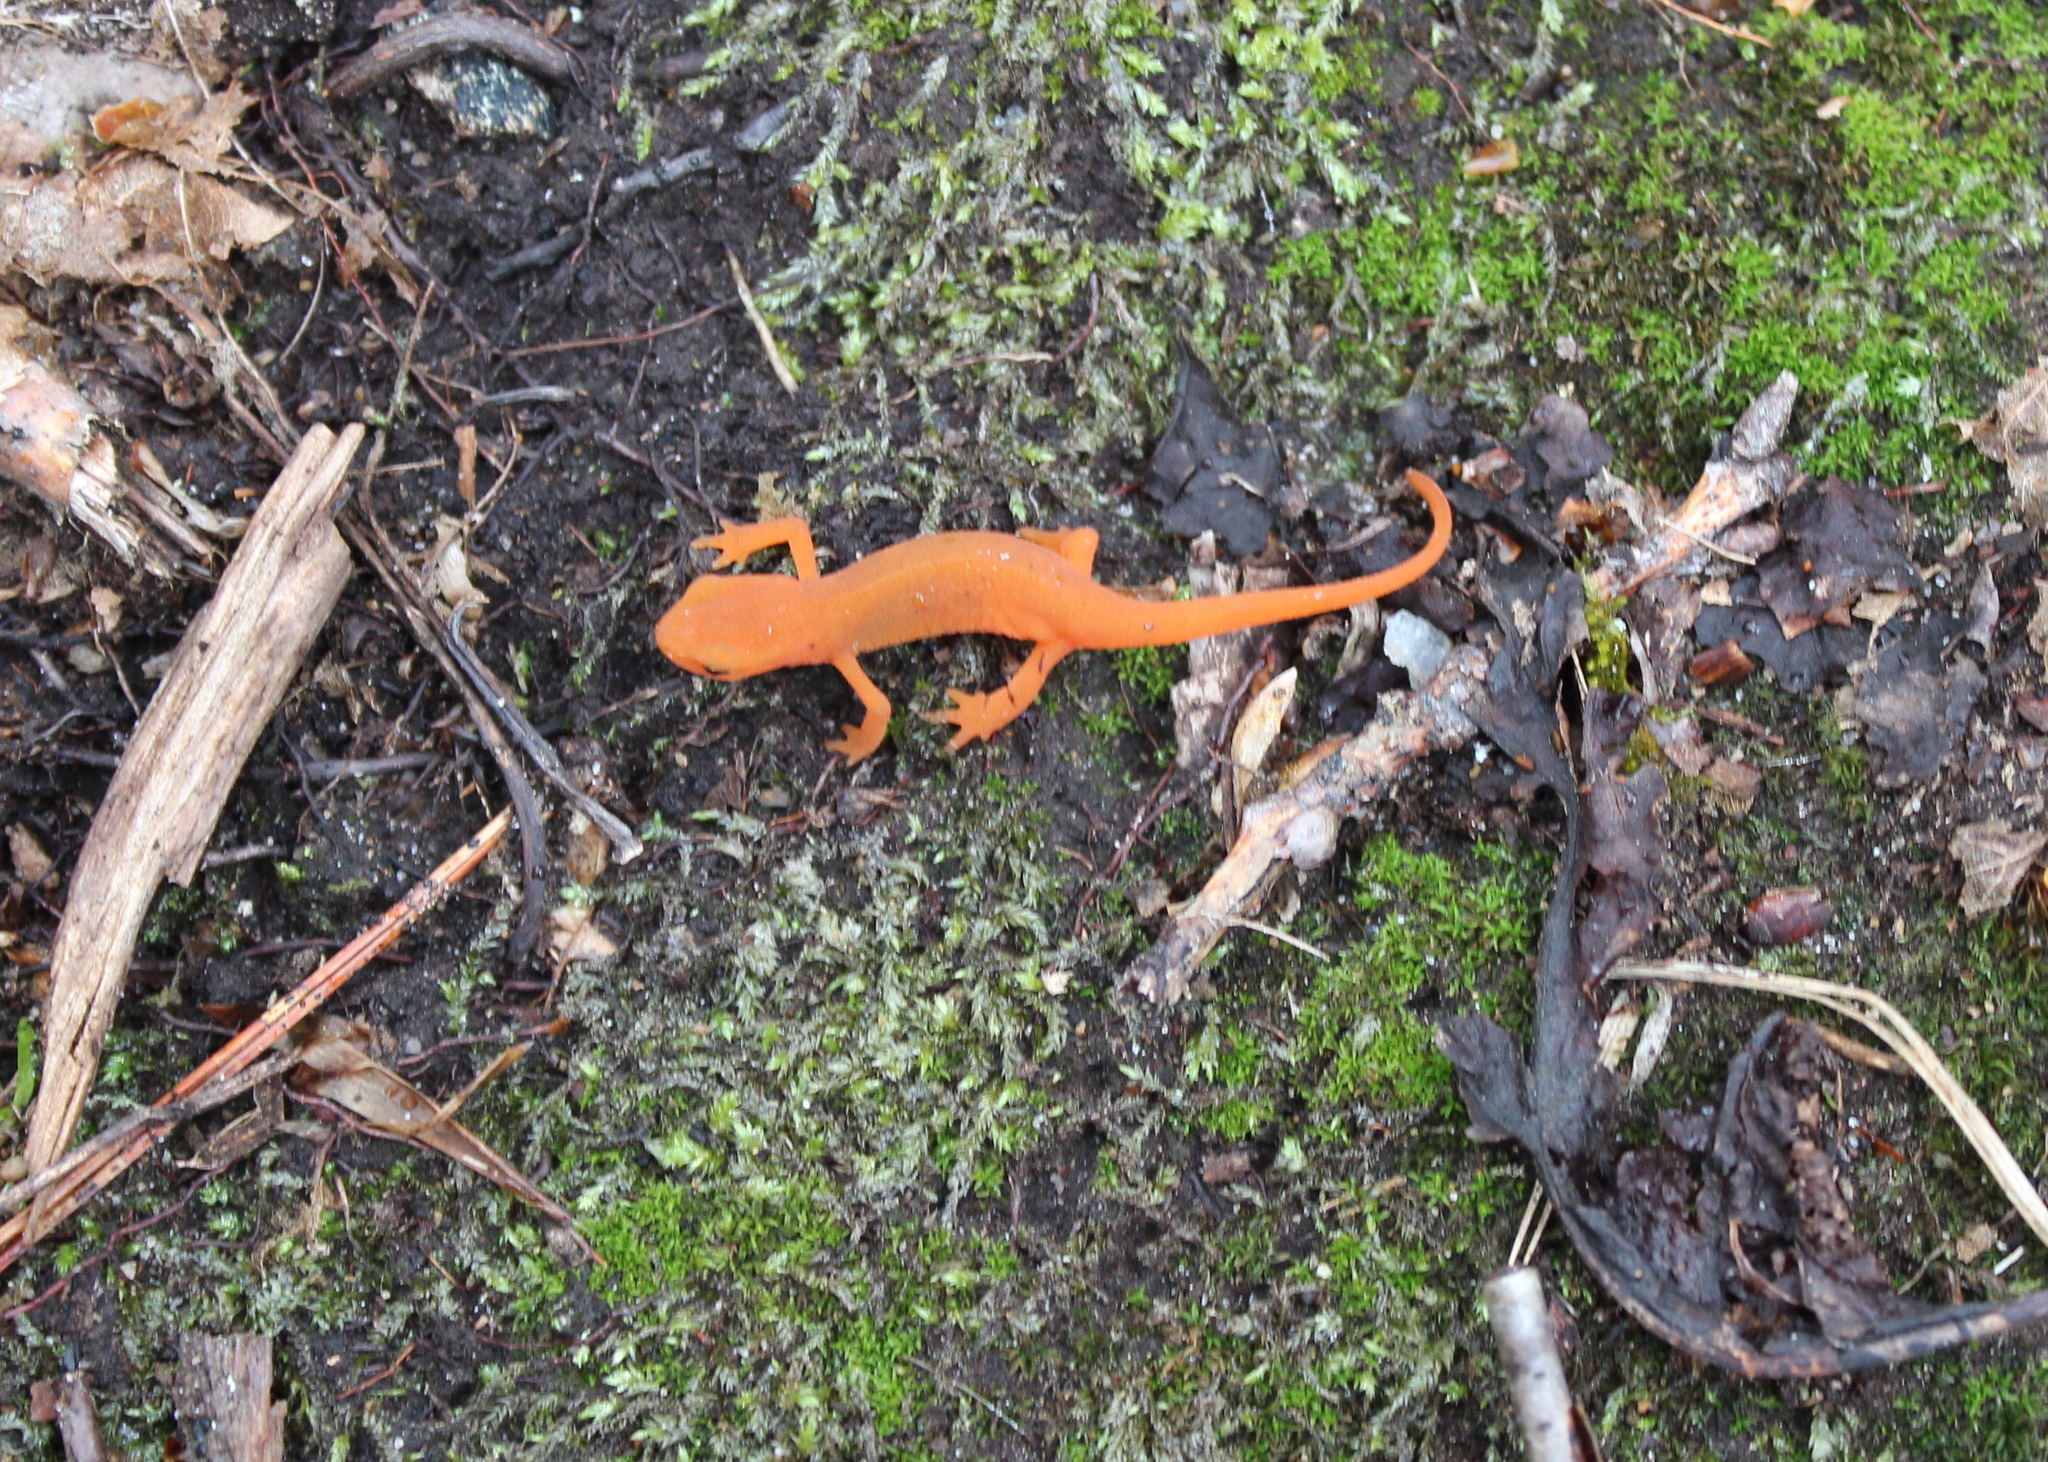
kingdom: Animalia
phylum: Chordata
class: Amphibia
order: Caudata
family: Salamandridae
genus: Notophthalmus
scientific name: Notophthalmus viridescens
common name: Eastern newt
